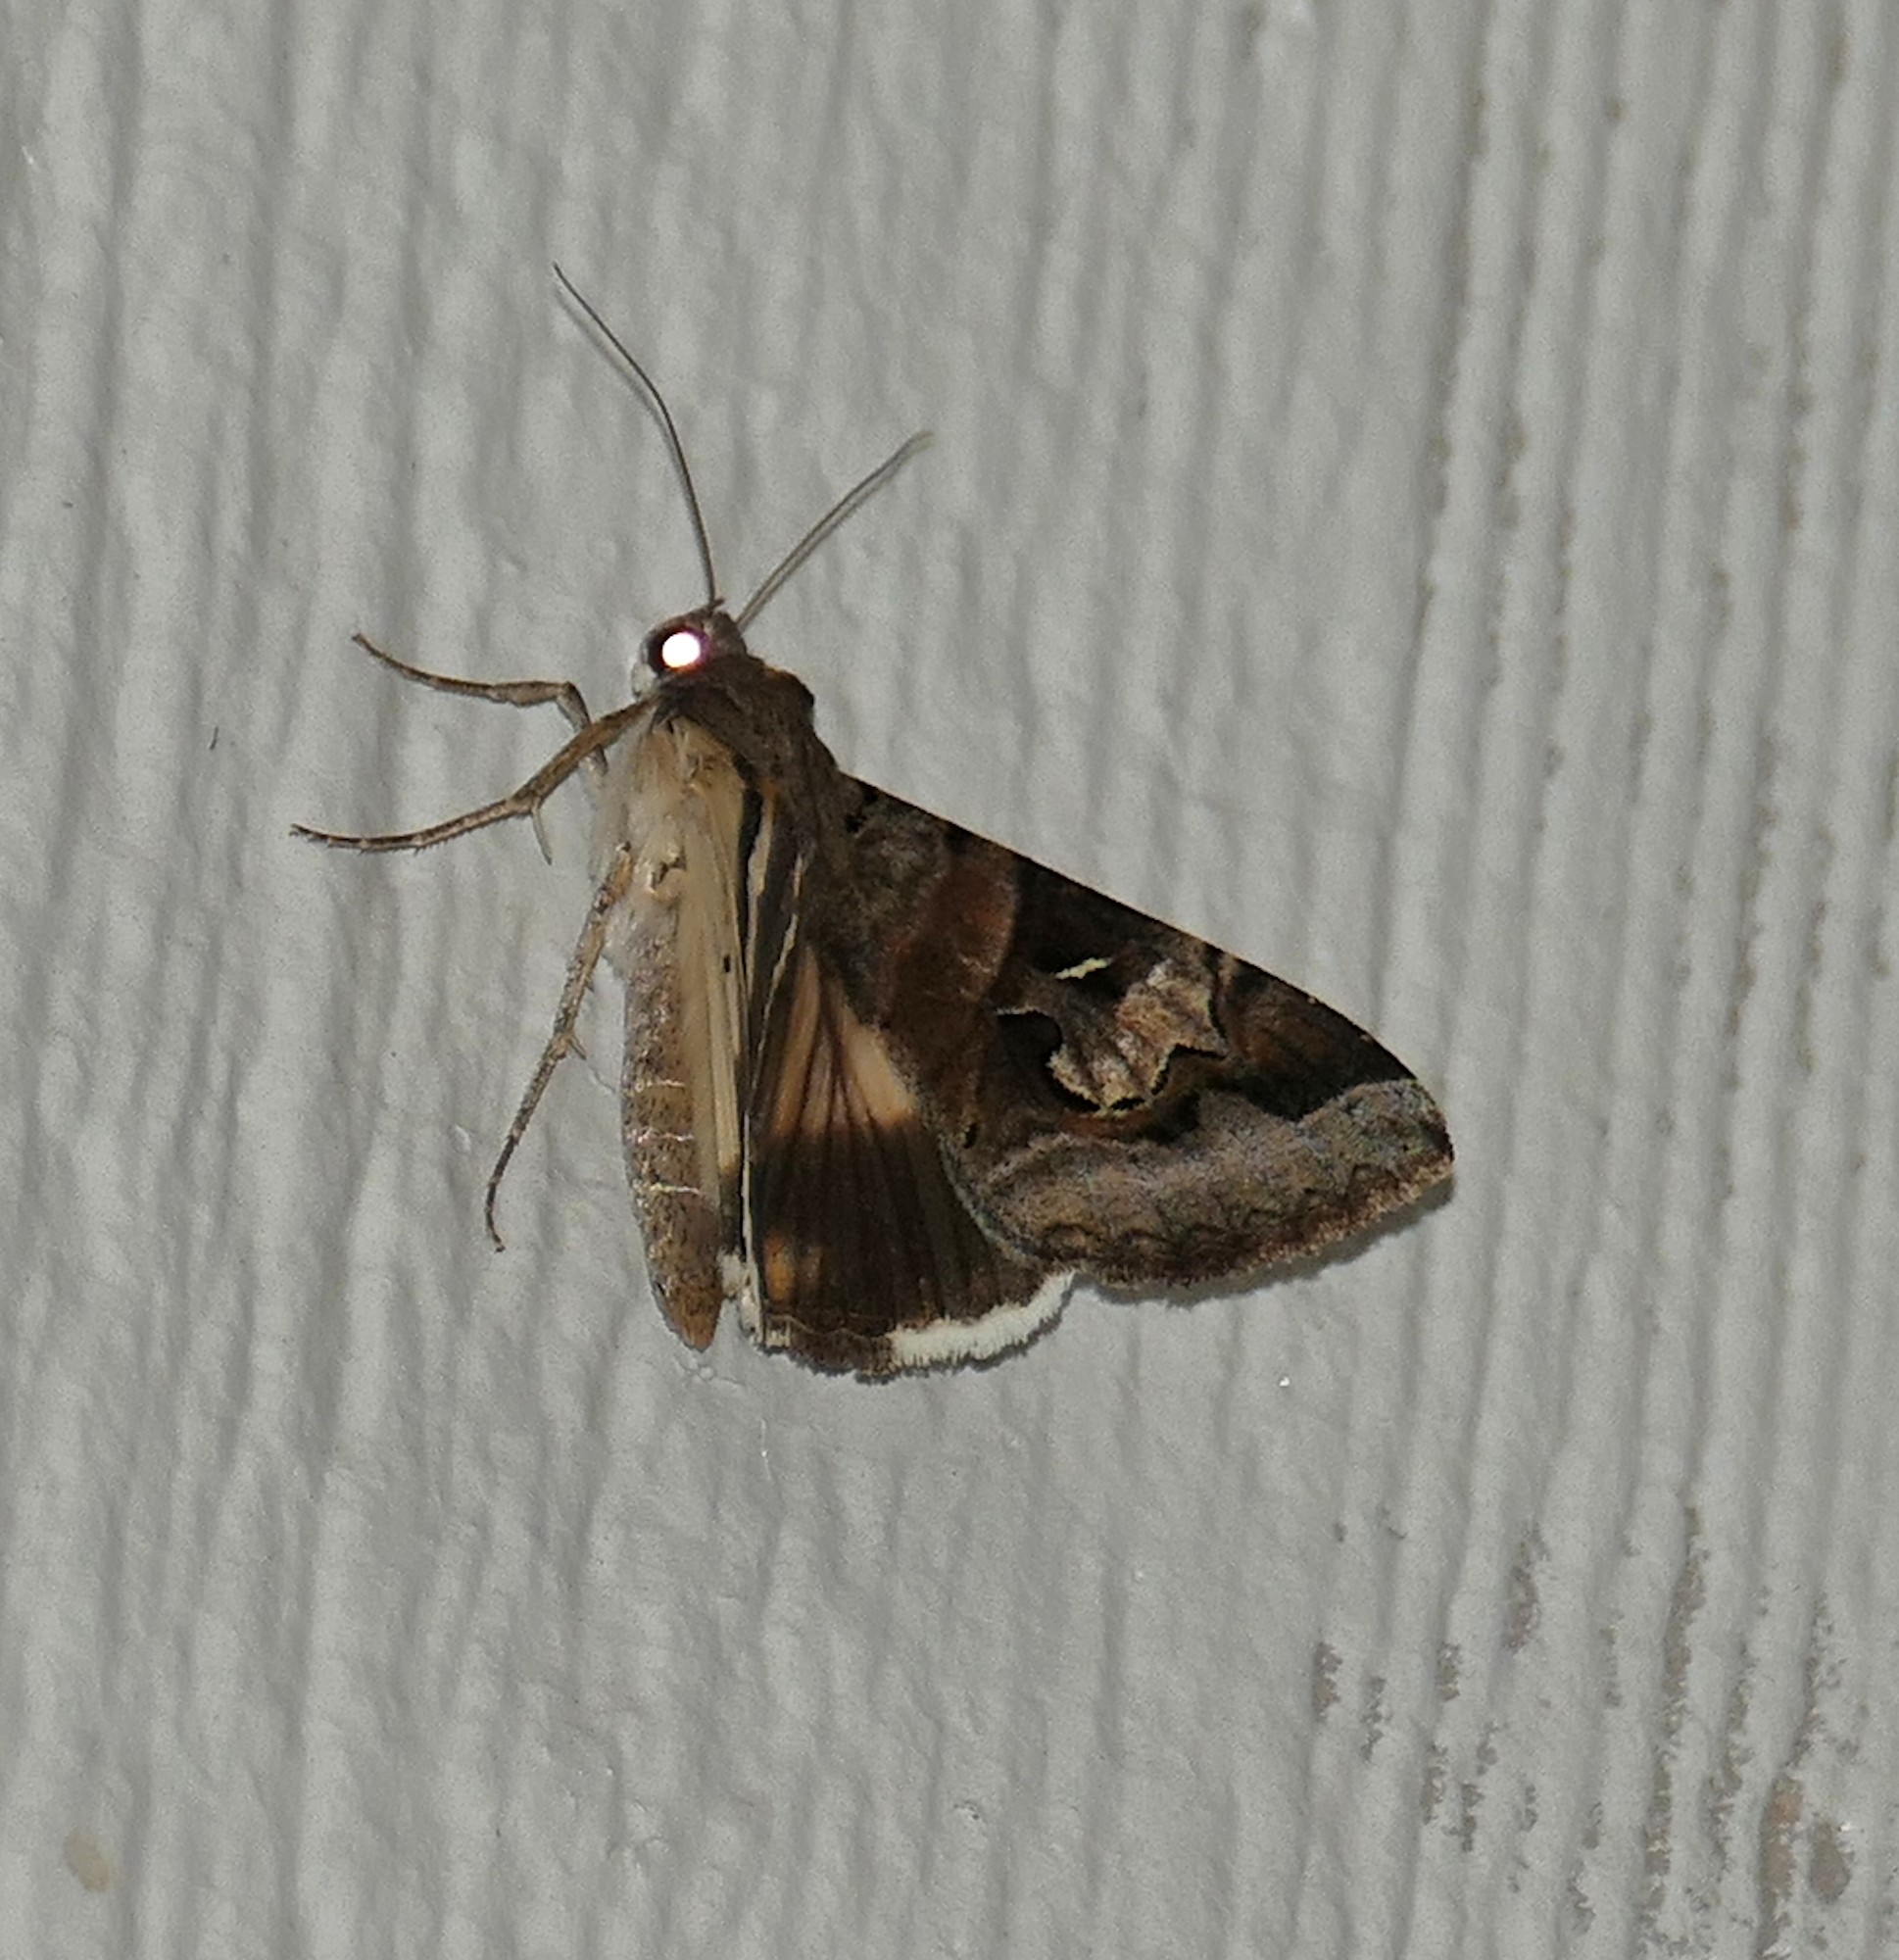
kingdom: Animalia
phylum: Arthropoda
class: Insecta
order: Lepidoptera
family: Erebidae
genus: Melipotis
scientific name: Melipotis indomita
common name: Moth
